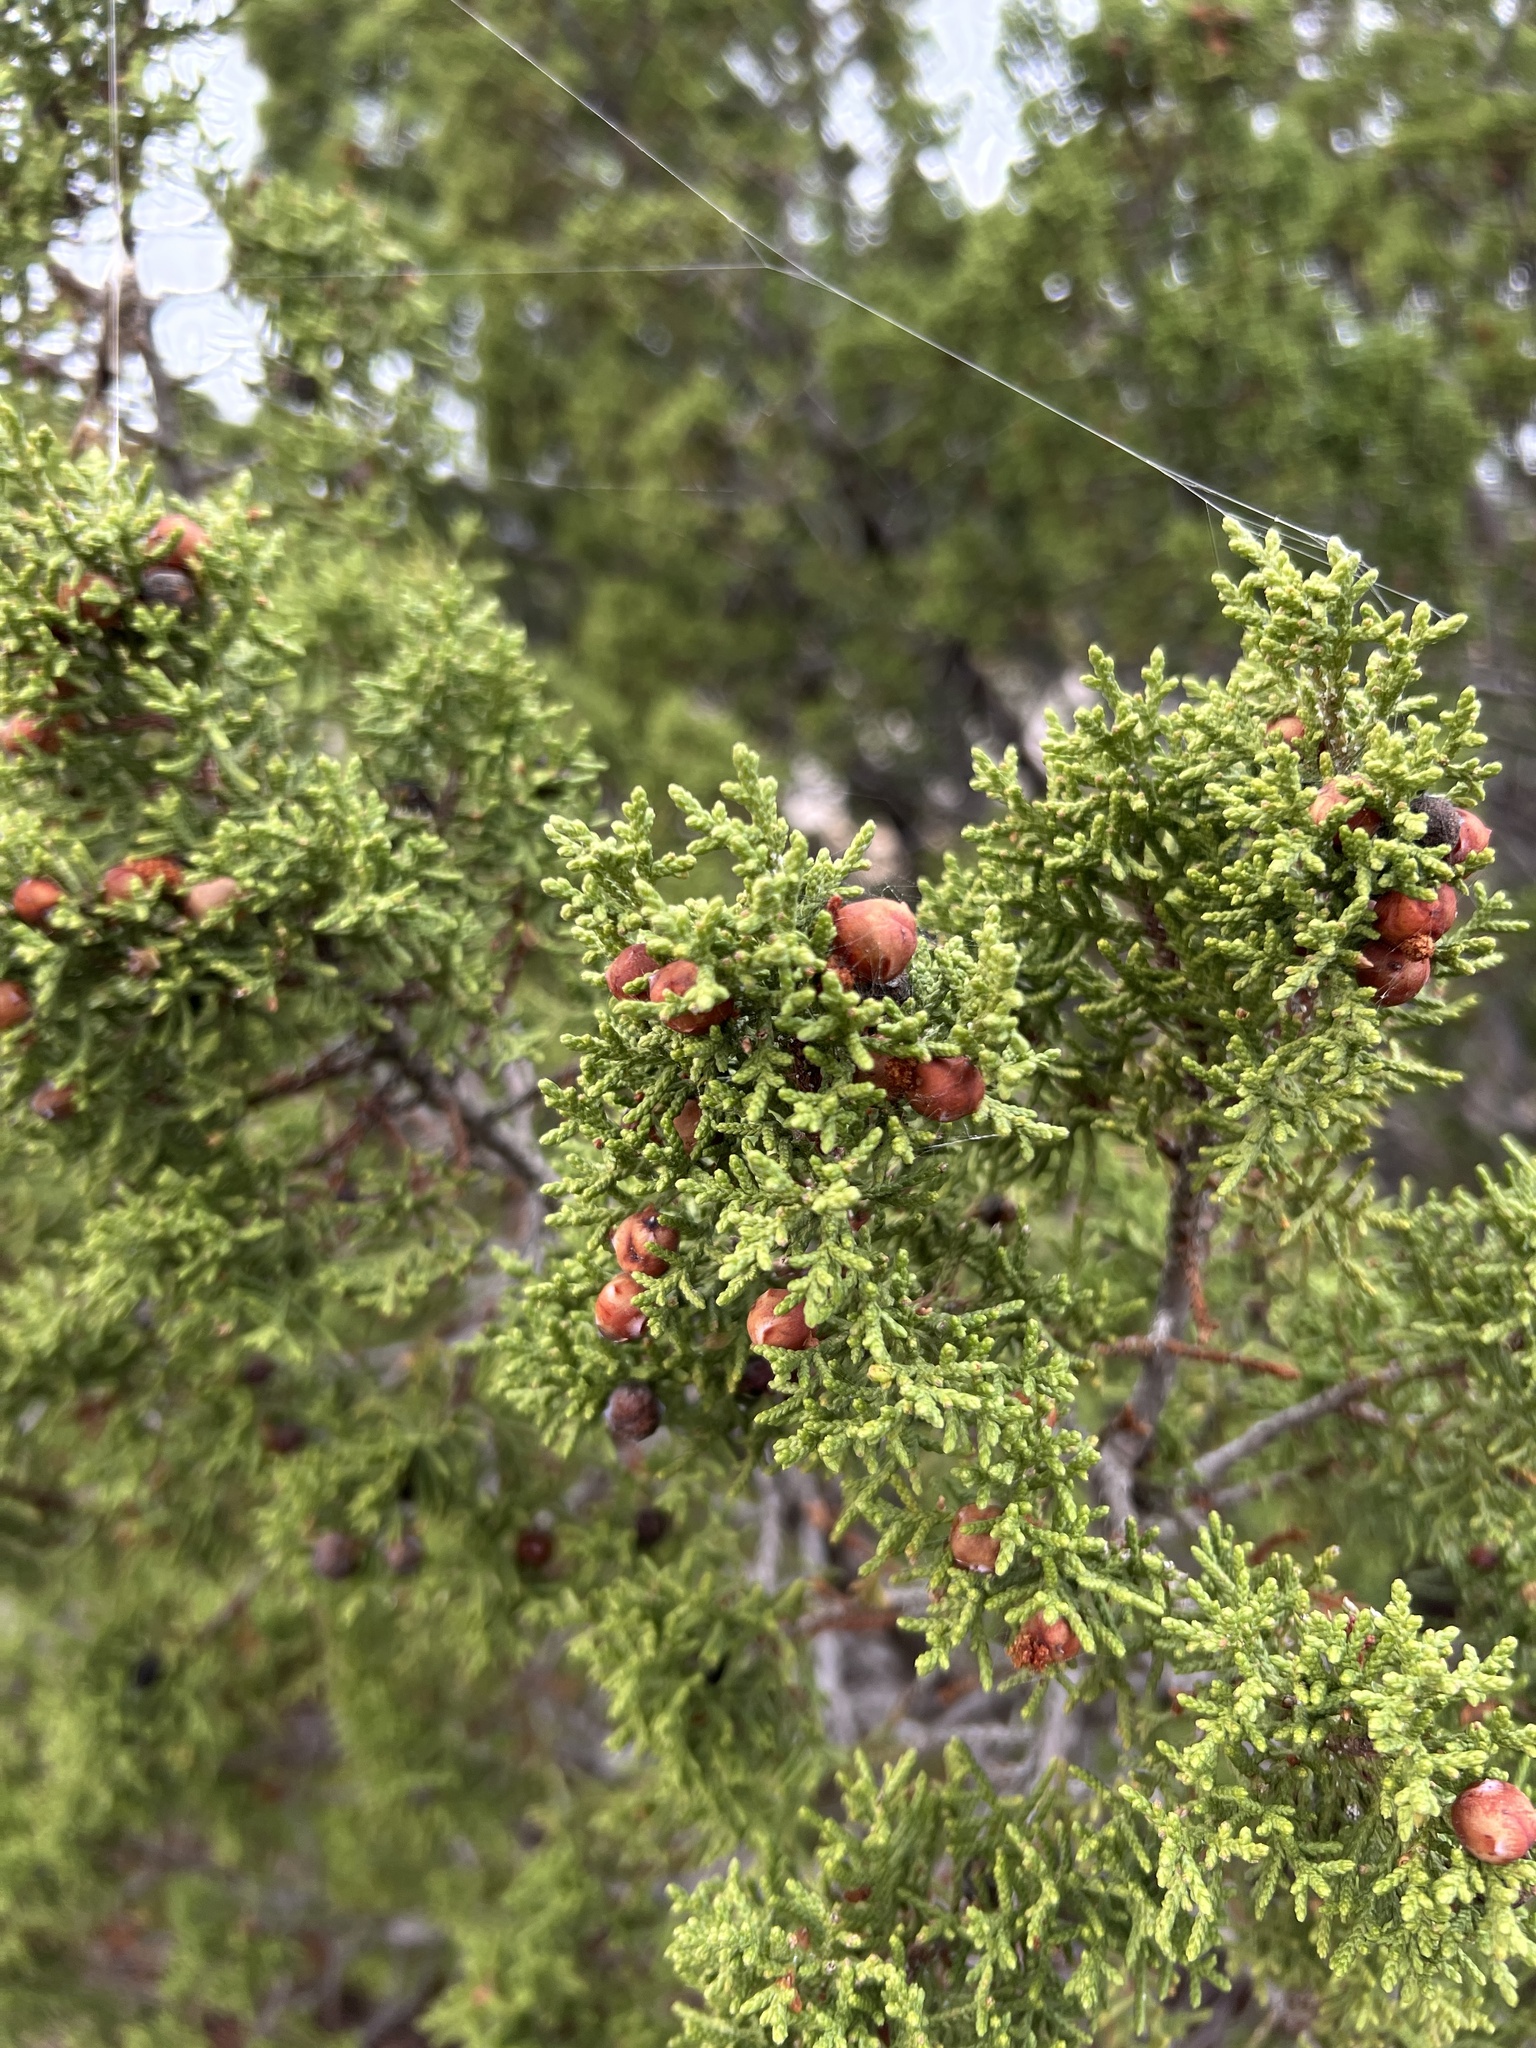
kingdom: Plantae
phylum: Tracheophyta
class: Pinopsida
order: Pinales
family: Cupressaceae
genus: Juniperus
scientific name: Juniperus pinchotii
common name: Pinchot juniper
